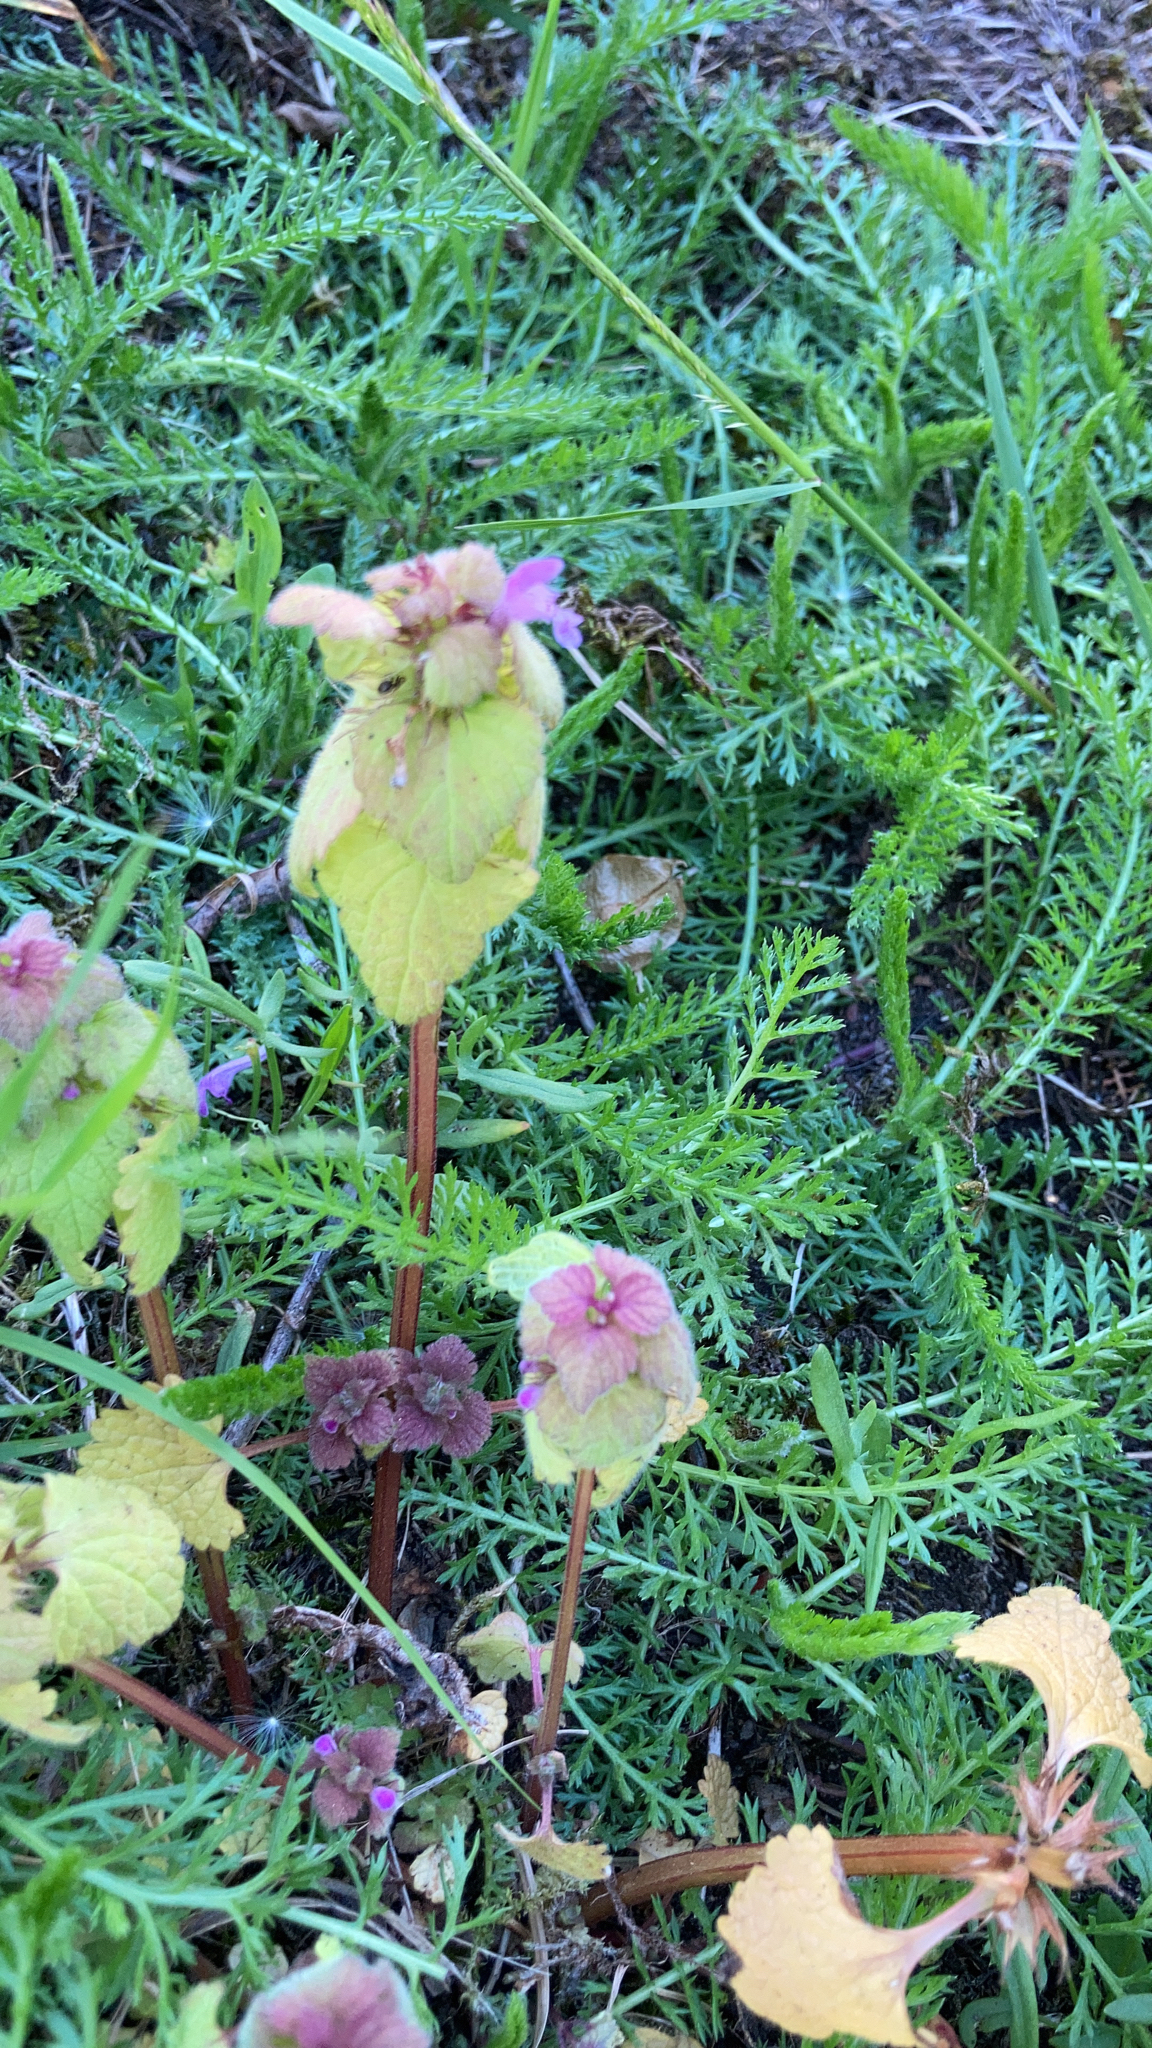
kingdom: Plantae
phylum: Tracheophyta
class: Magnoliopsida
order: Lamiales
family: Lamiaceae
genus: Lamium
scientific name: Lamium purpureum
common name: Red dead-nettle
